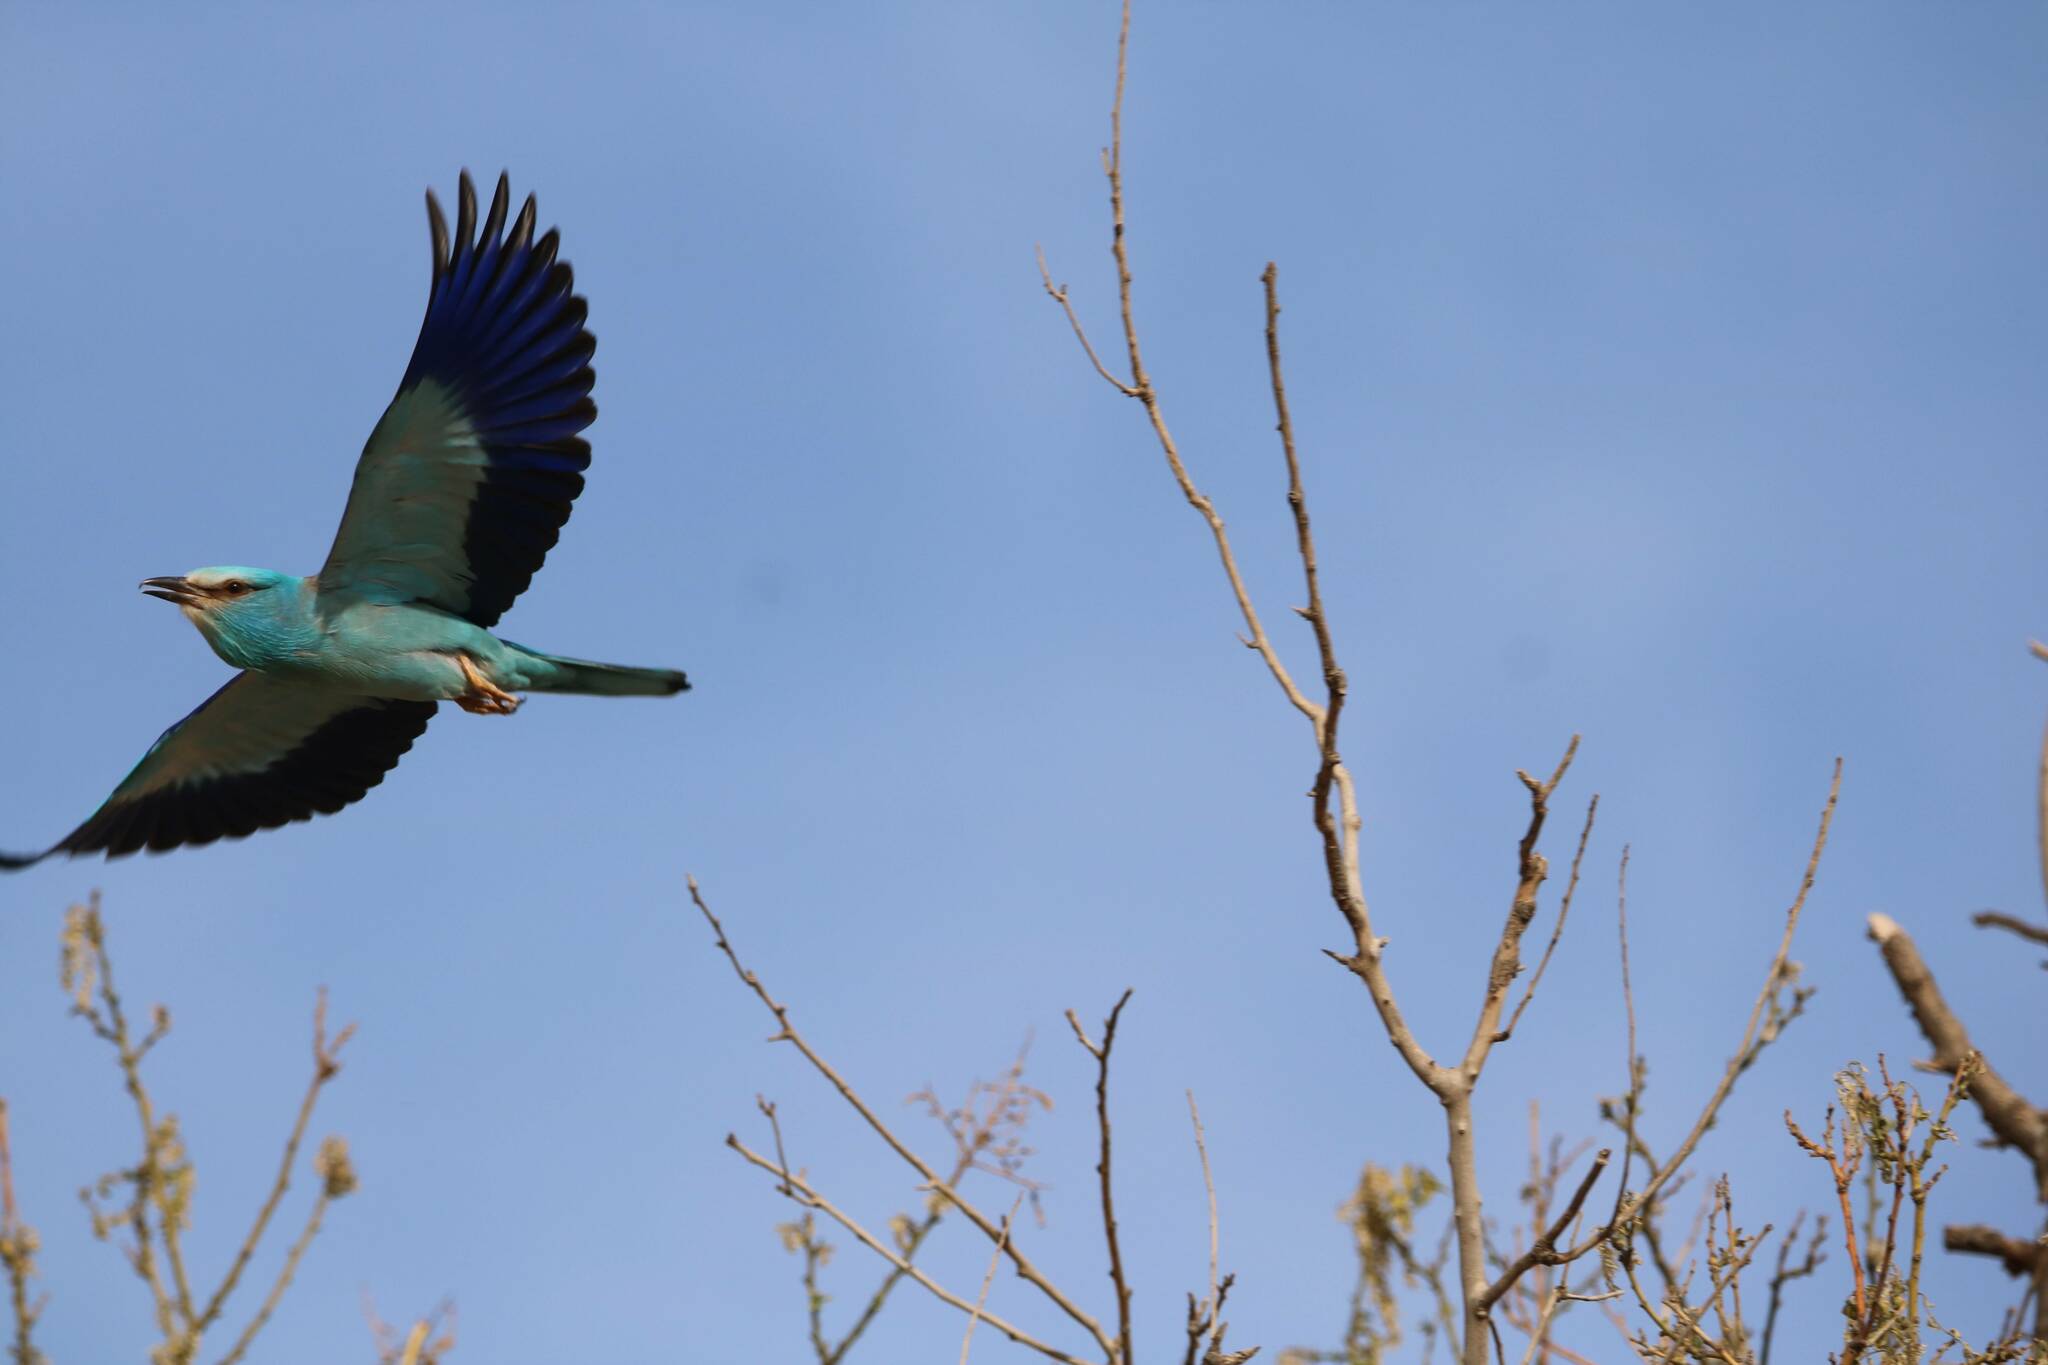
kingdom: Animalia
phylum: Chordata
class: Aves
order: Coraciiformes
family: Coraciidae
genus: Coracias
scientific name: Coracias garrulus
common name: European roller
